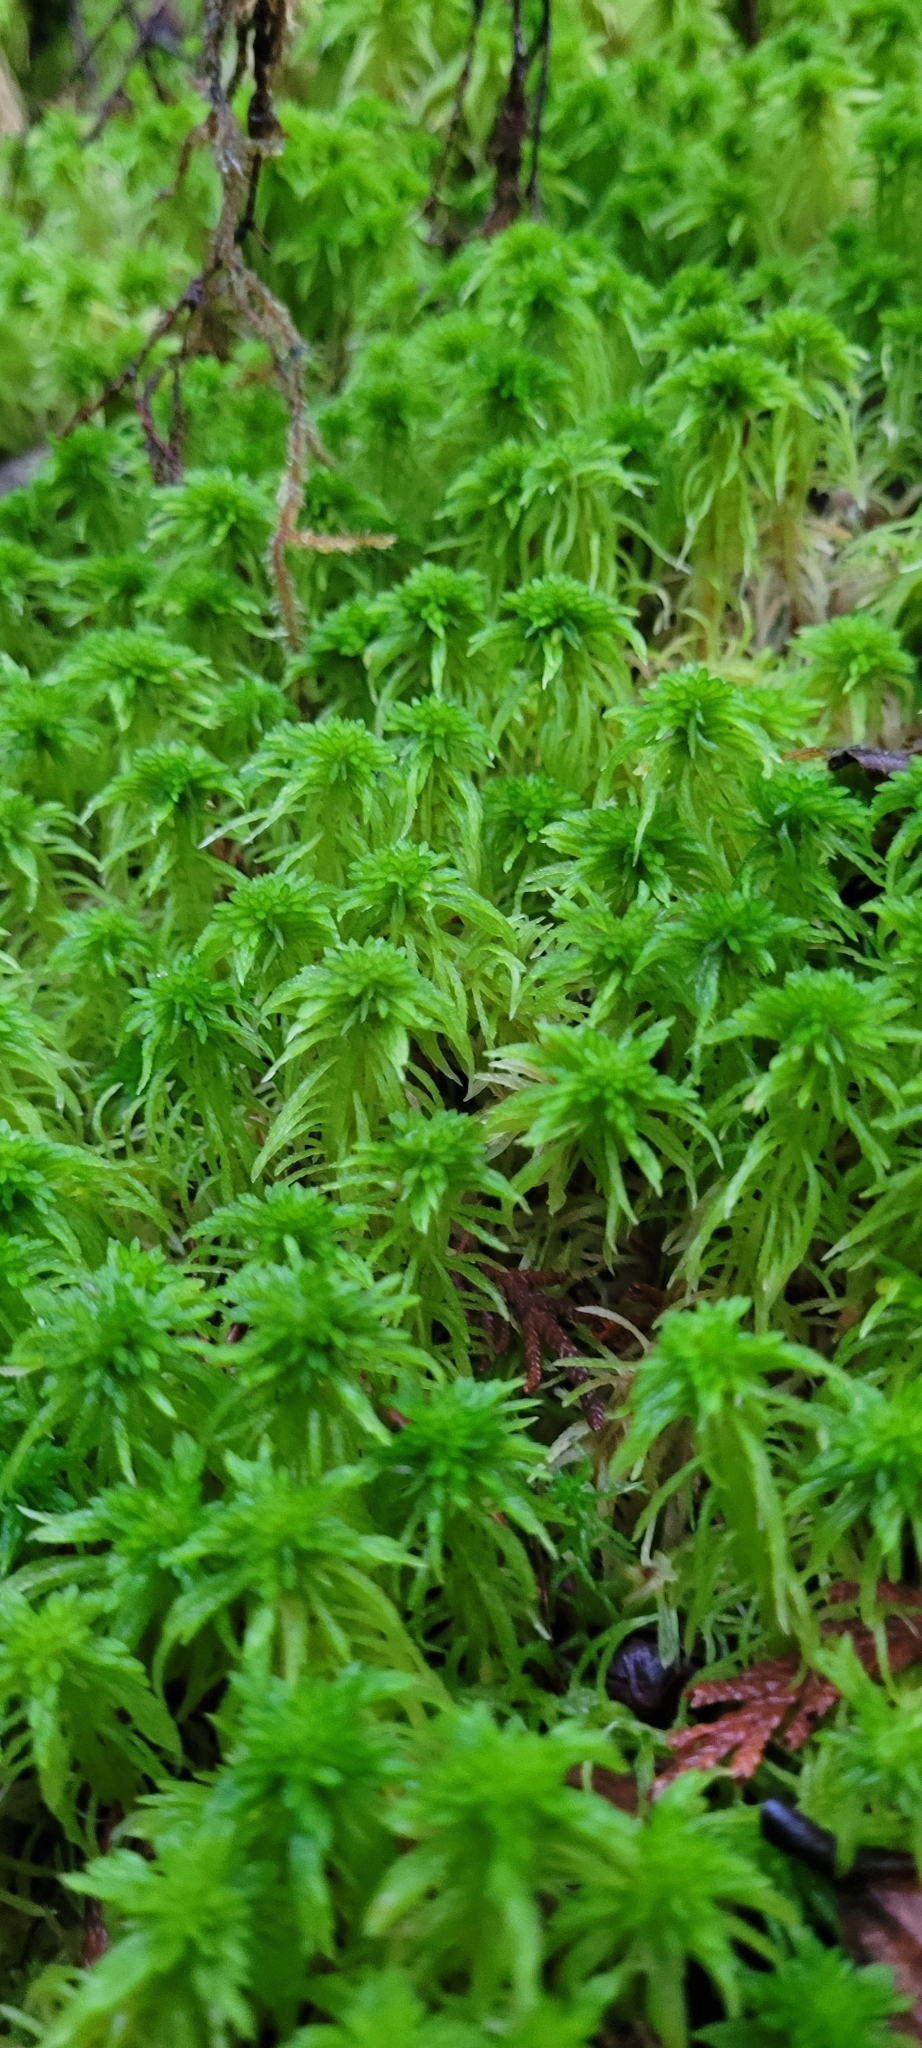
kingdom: Plantae
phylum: Bryophyta
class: Sphagnopsida
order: Sphagnales
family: Sphagnaceae
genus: Sphagnum
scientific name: Sphagnum rubiginosum
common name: Variegated peat moss
